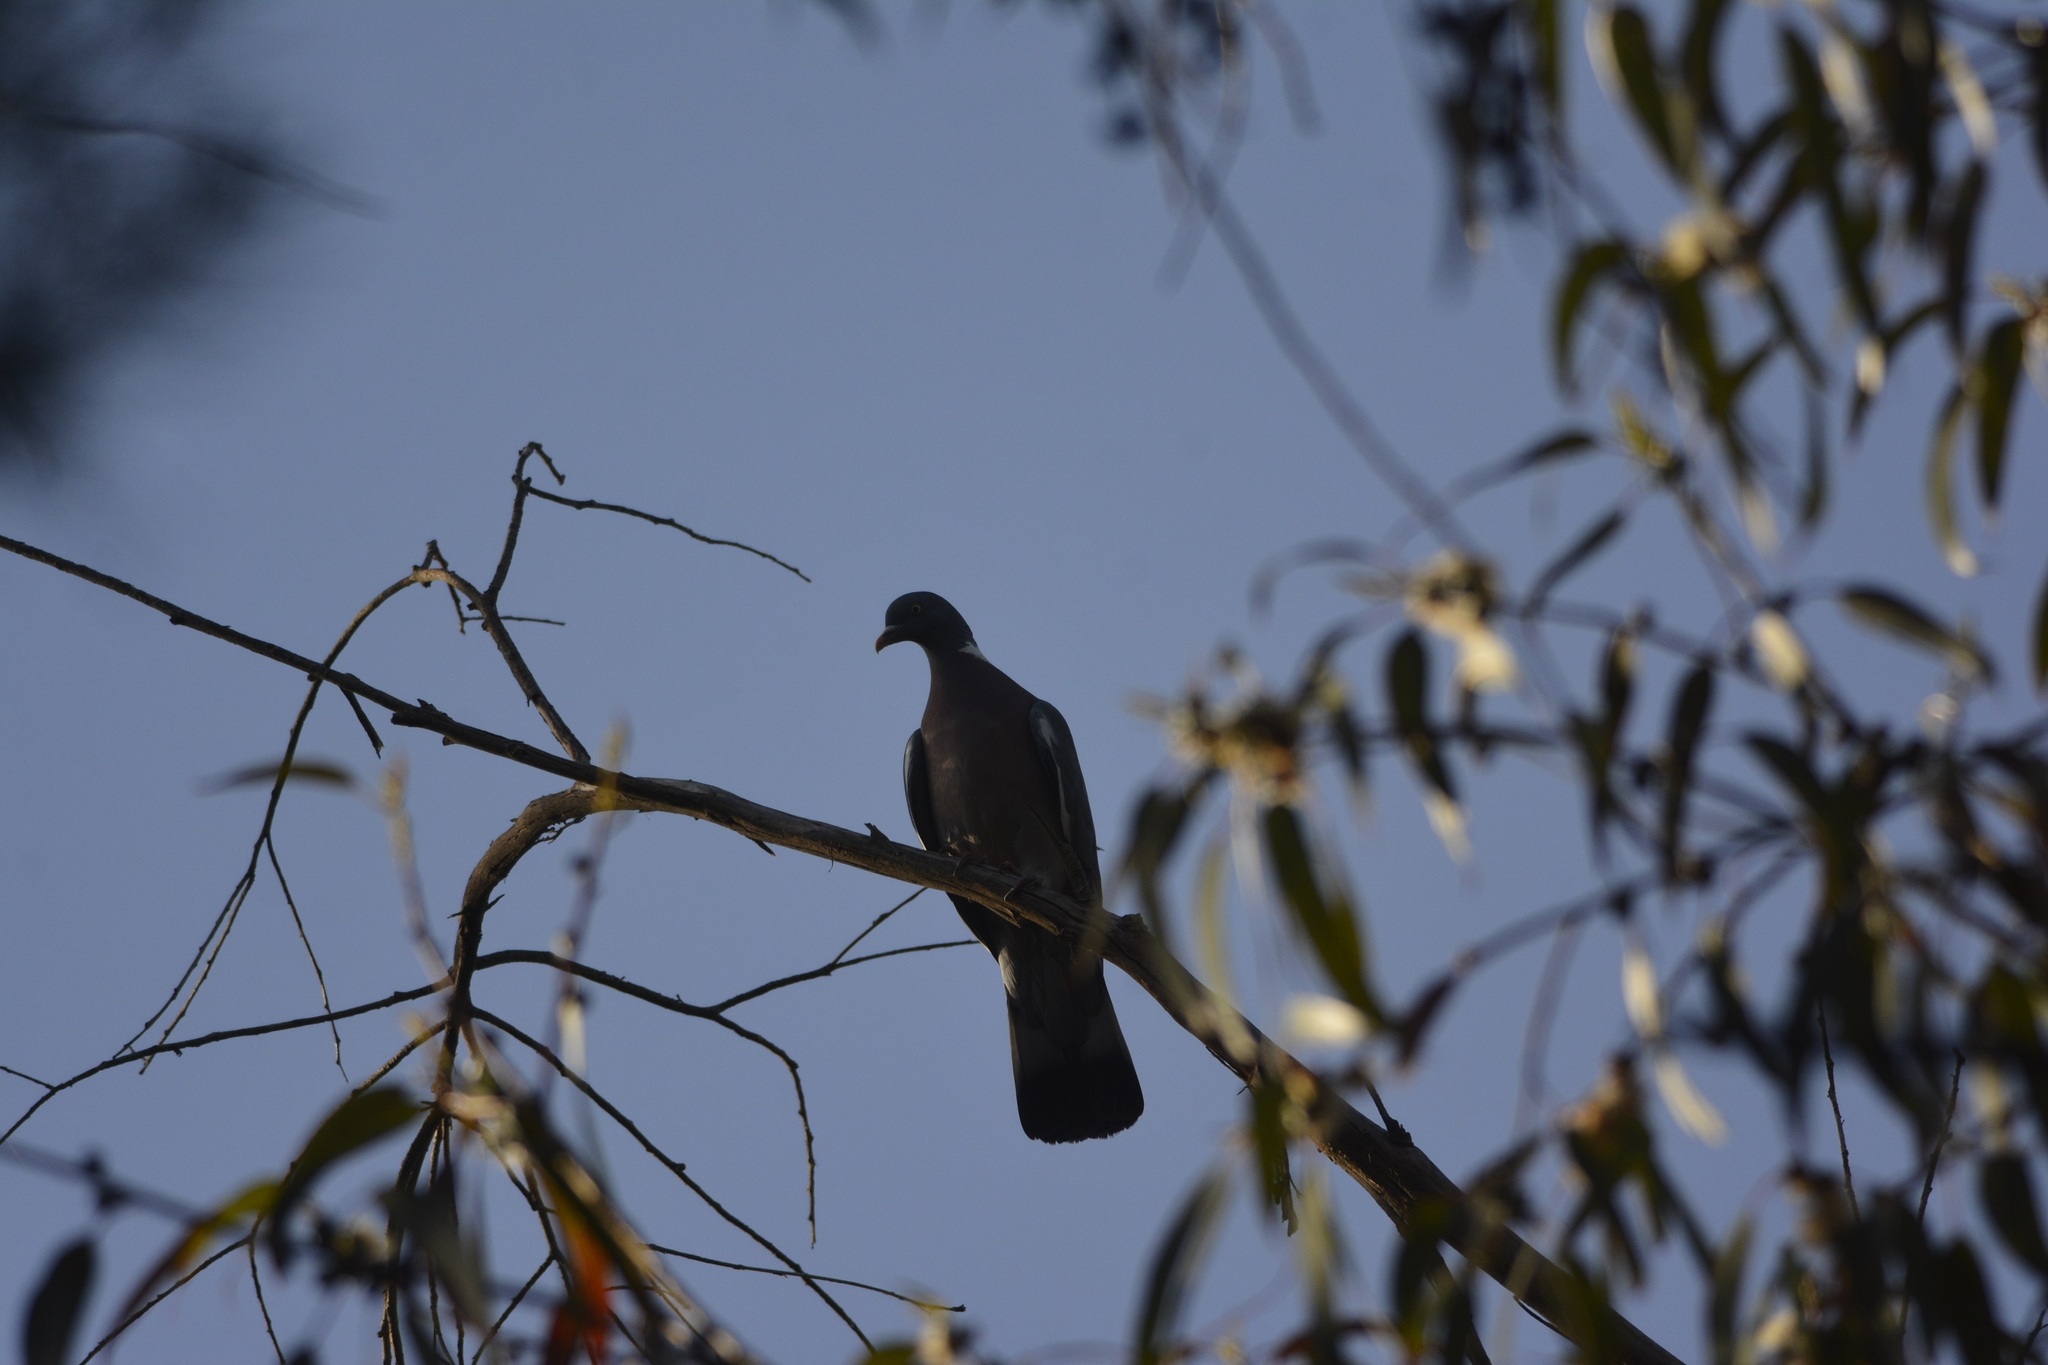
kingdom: Animalia
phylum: Chordata
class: Aves
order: Columbiformes
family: Columbidae
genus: Columba
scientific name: Columba palumbus
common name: Common wood pigeon
